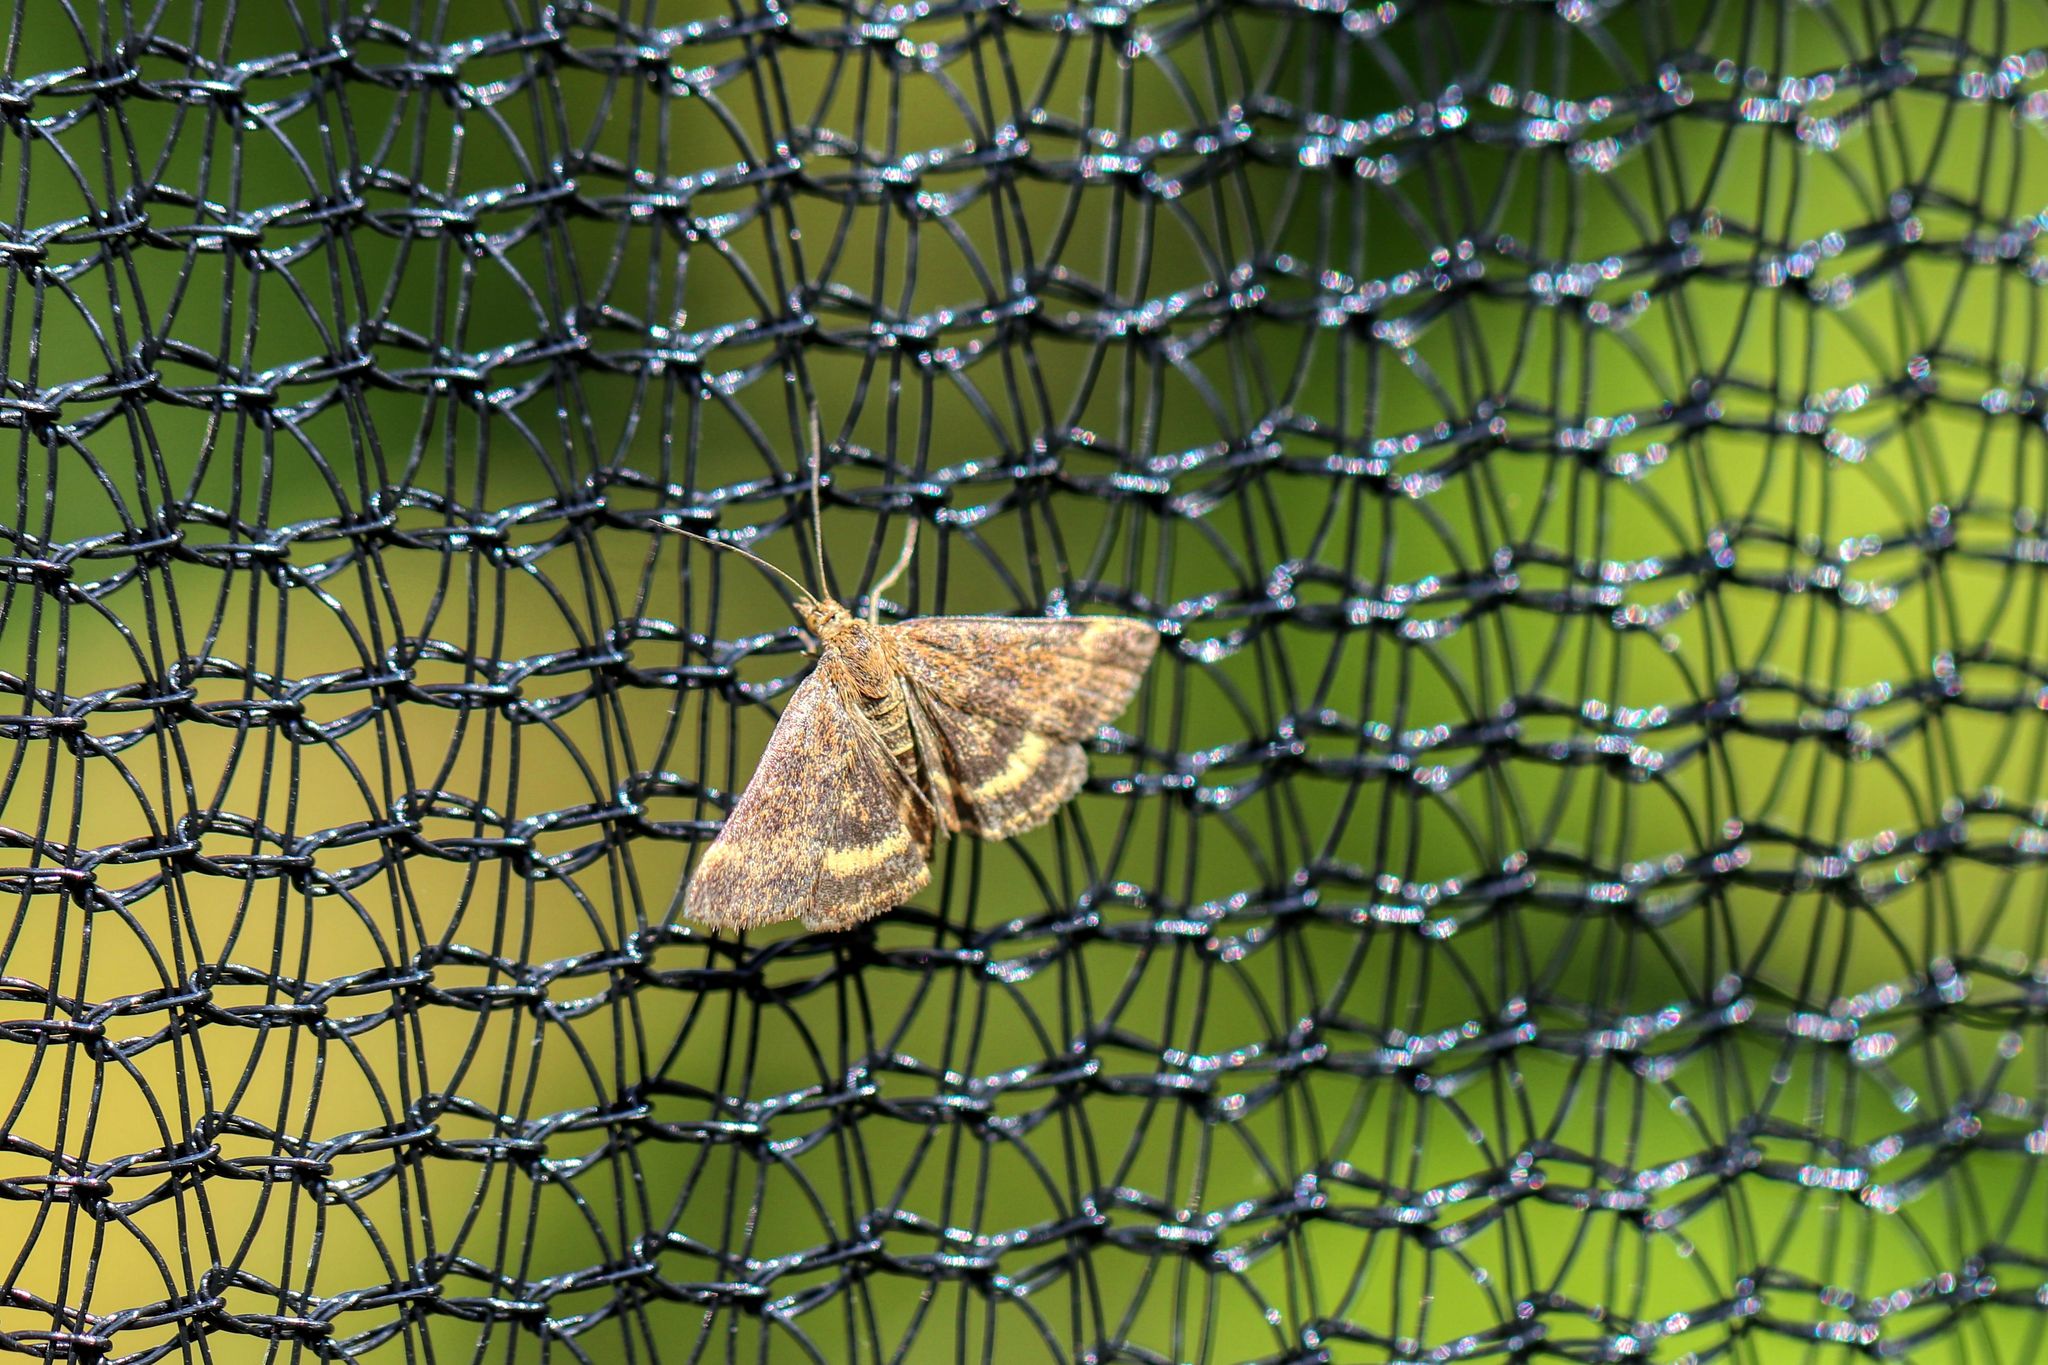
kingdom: Animalia
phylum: Arthropoda
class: Insecta
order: Lepidoptera
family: Crambidae
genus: Pyrausta
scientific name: Pyrausta despicata
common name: Straw-barred pearl
